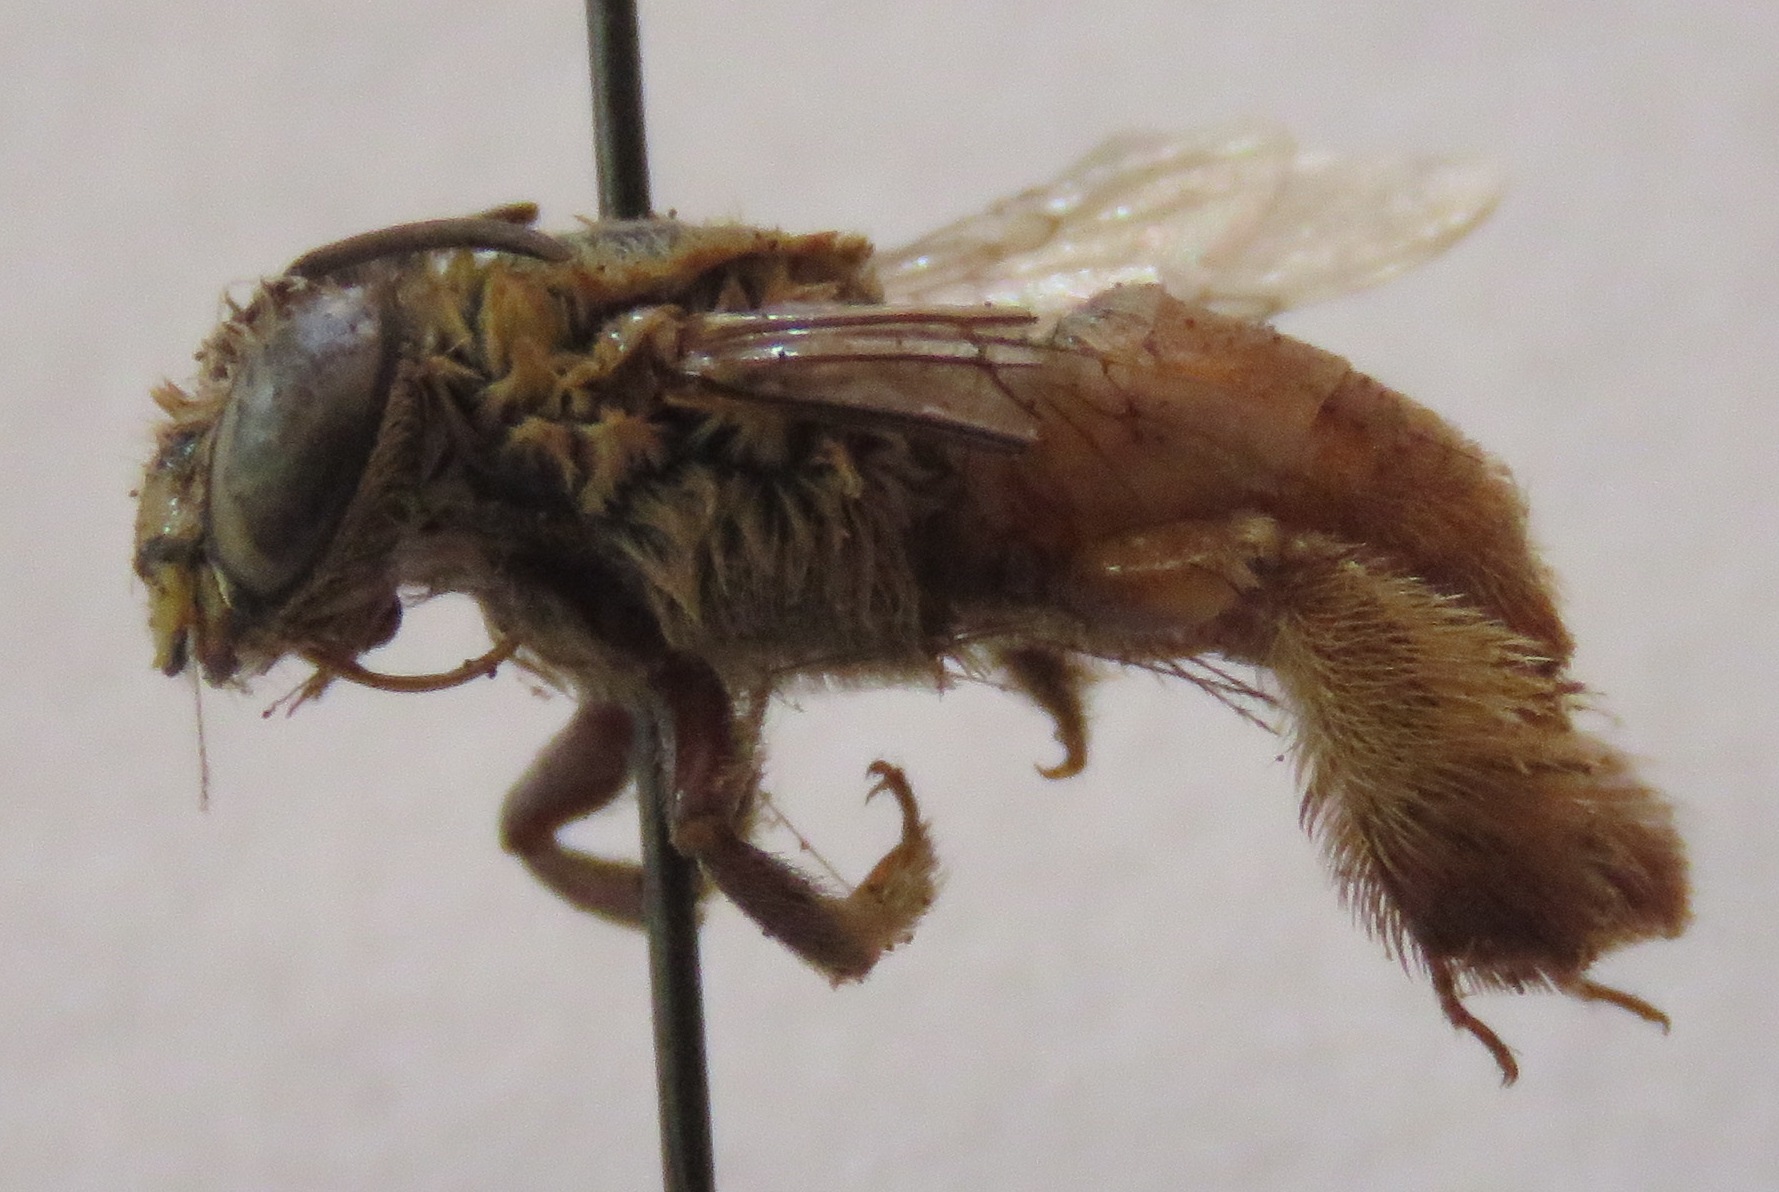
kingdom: Animalia
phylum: Arthropoda
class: Insecta
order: Hymenoptera
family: Apidae
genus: Centris
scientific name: Centris analis
